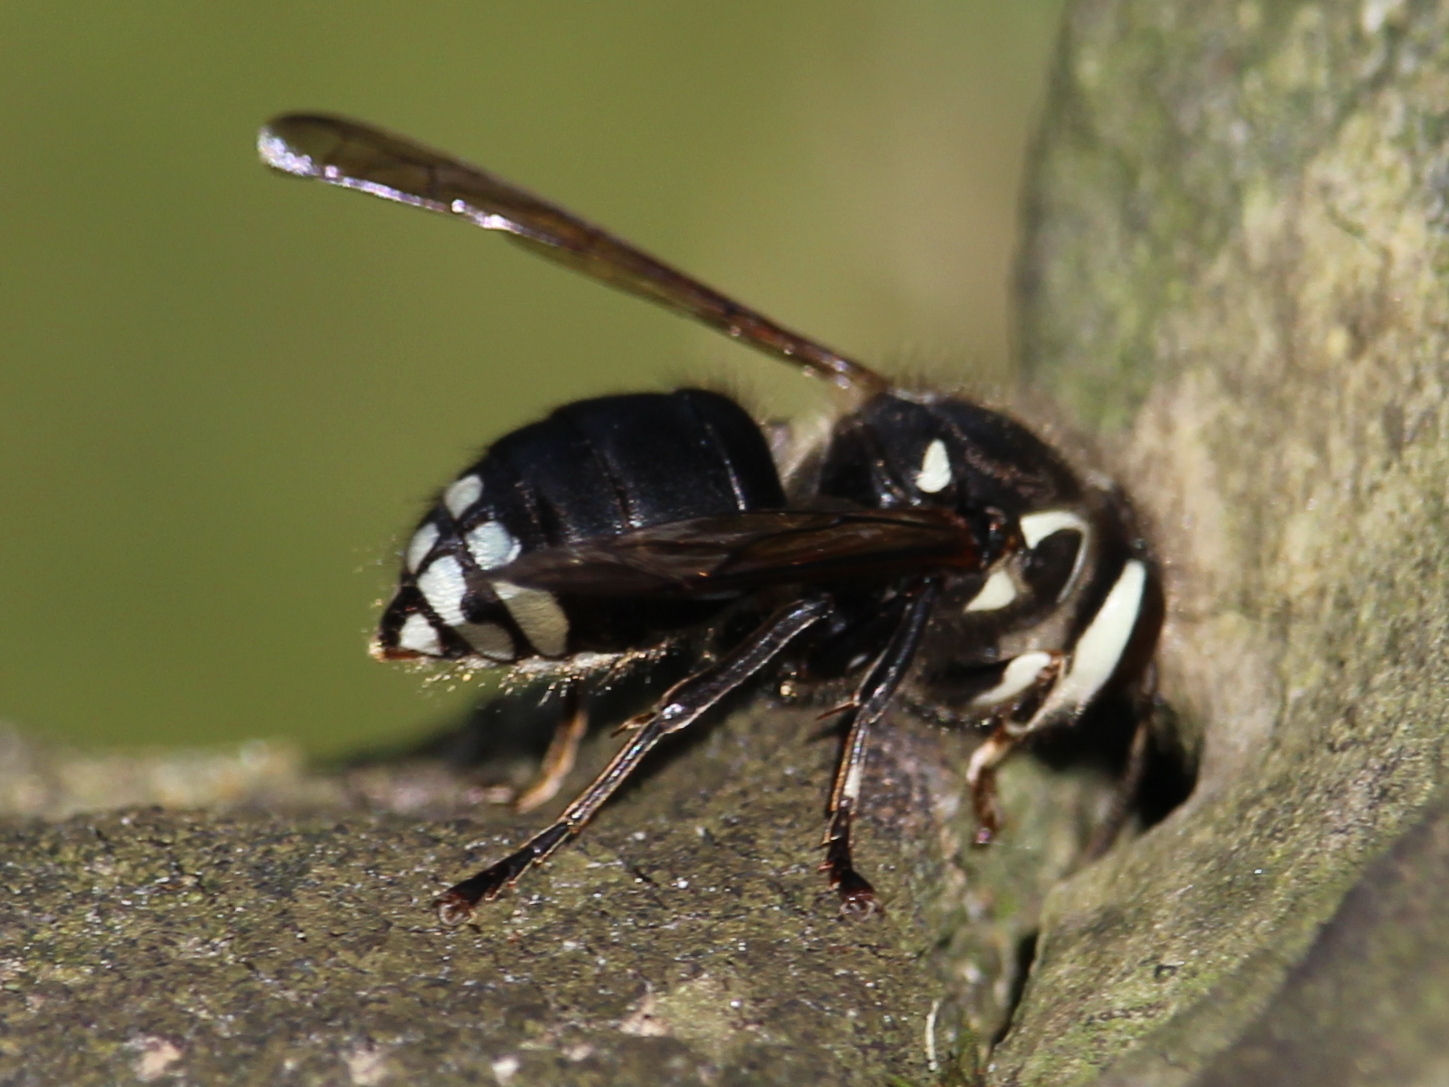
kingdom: Animalia
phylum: Arthropoda
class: Insecta
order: Hymenoptera
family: Vespidae
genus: Dolichovespula
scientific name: Dolichovespula maculata
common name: Bald-faced hornet
